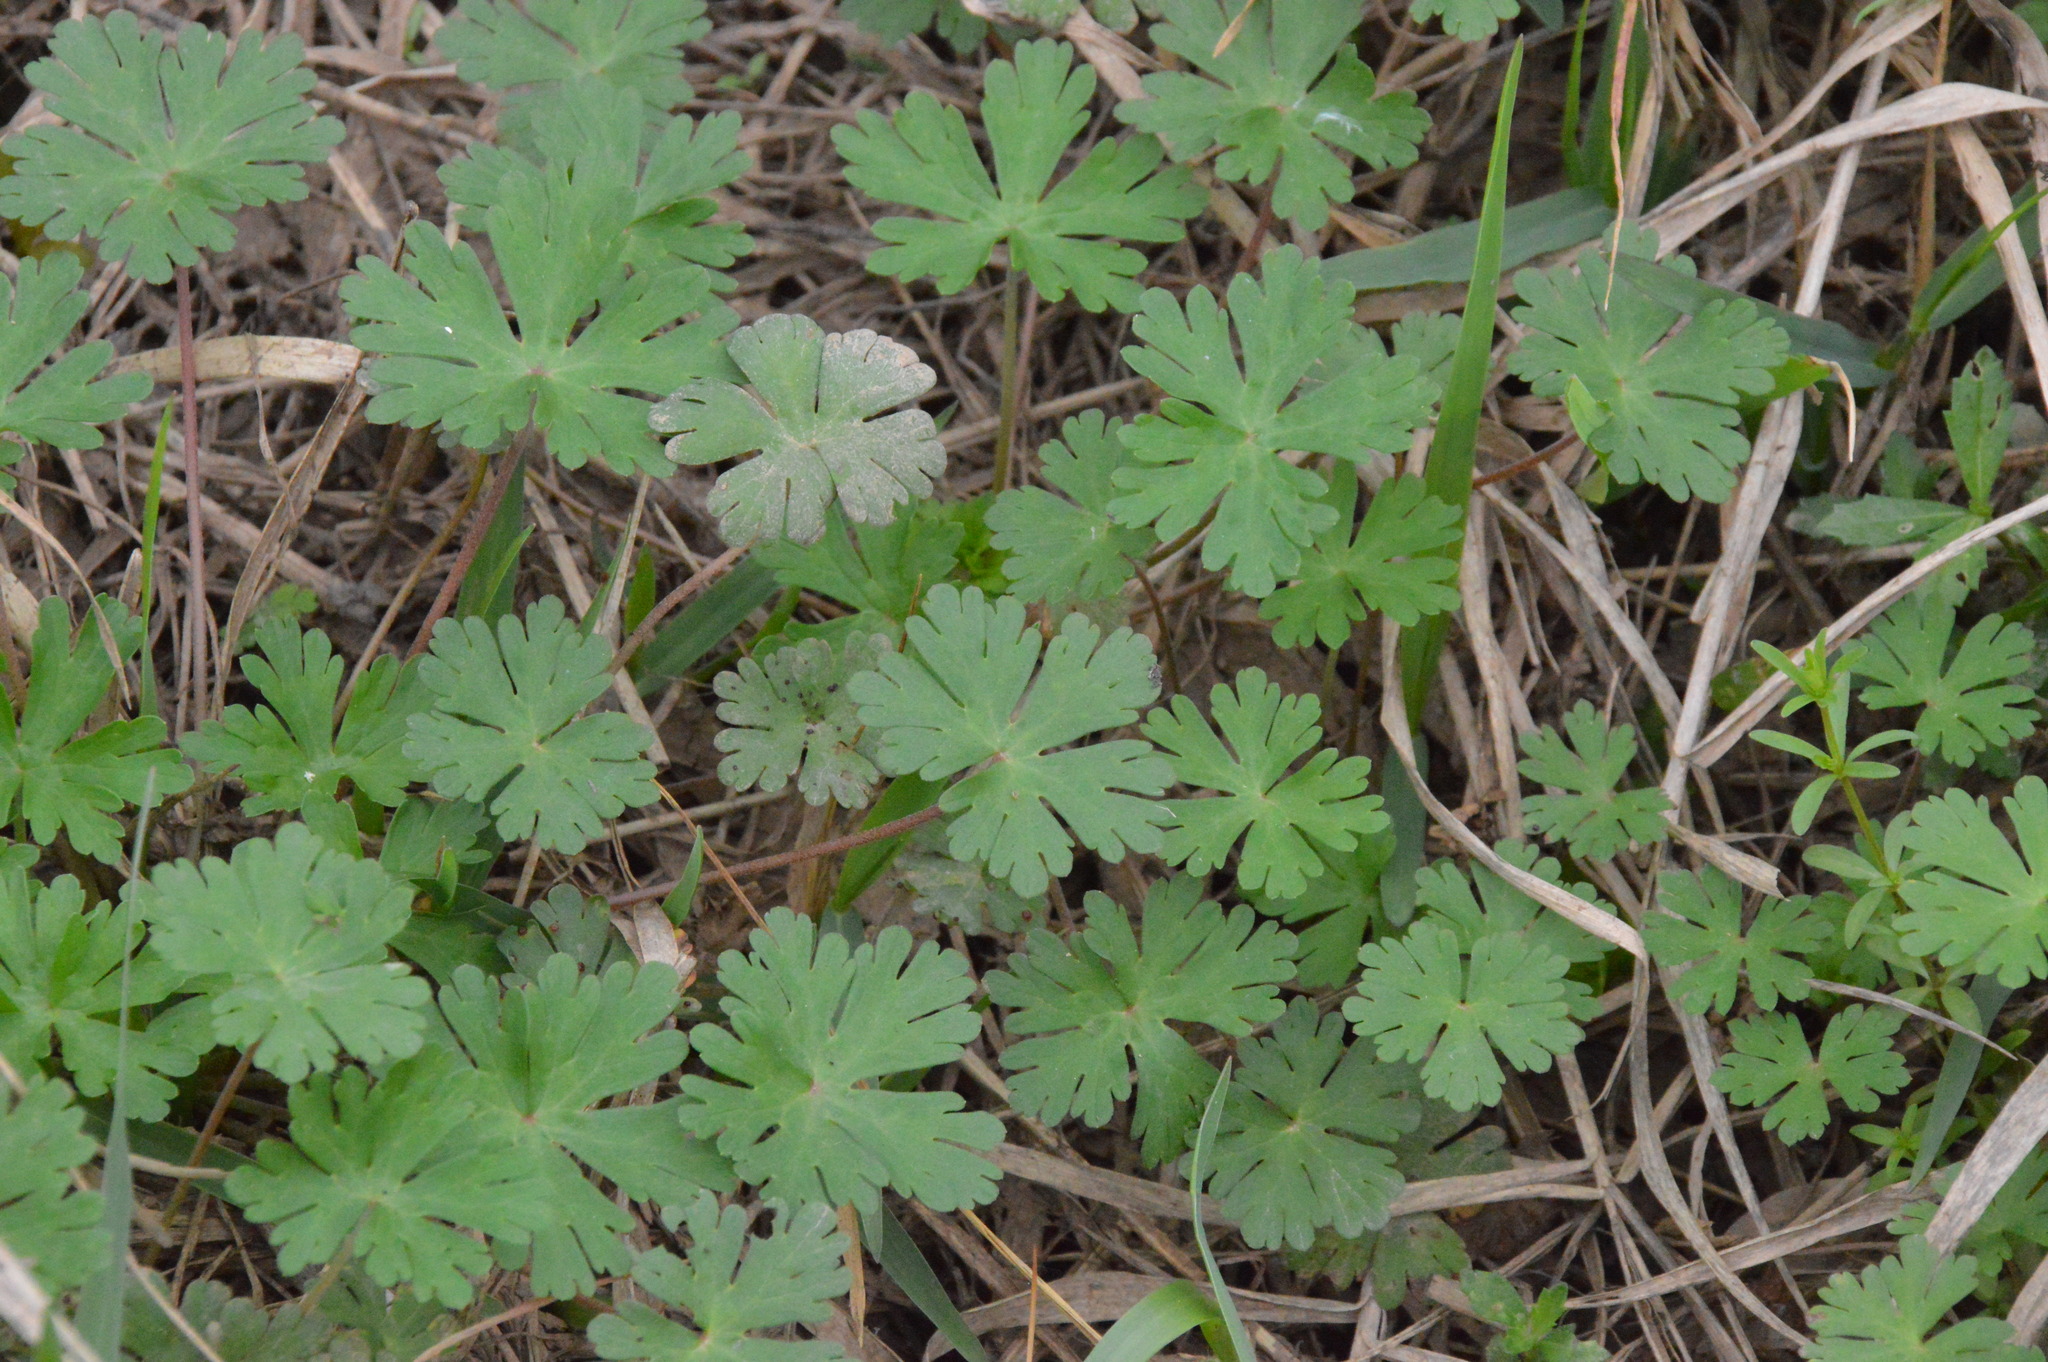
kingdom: Plantae
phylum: Tracheophyta
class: Magnoliopsida
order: Geraniales
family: Geraniaceae
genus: Geranium
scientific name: Geranium carolinianum
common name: Carolina crane's-bill
